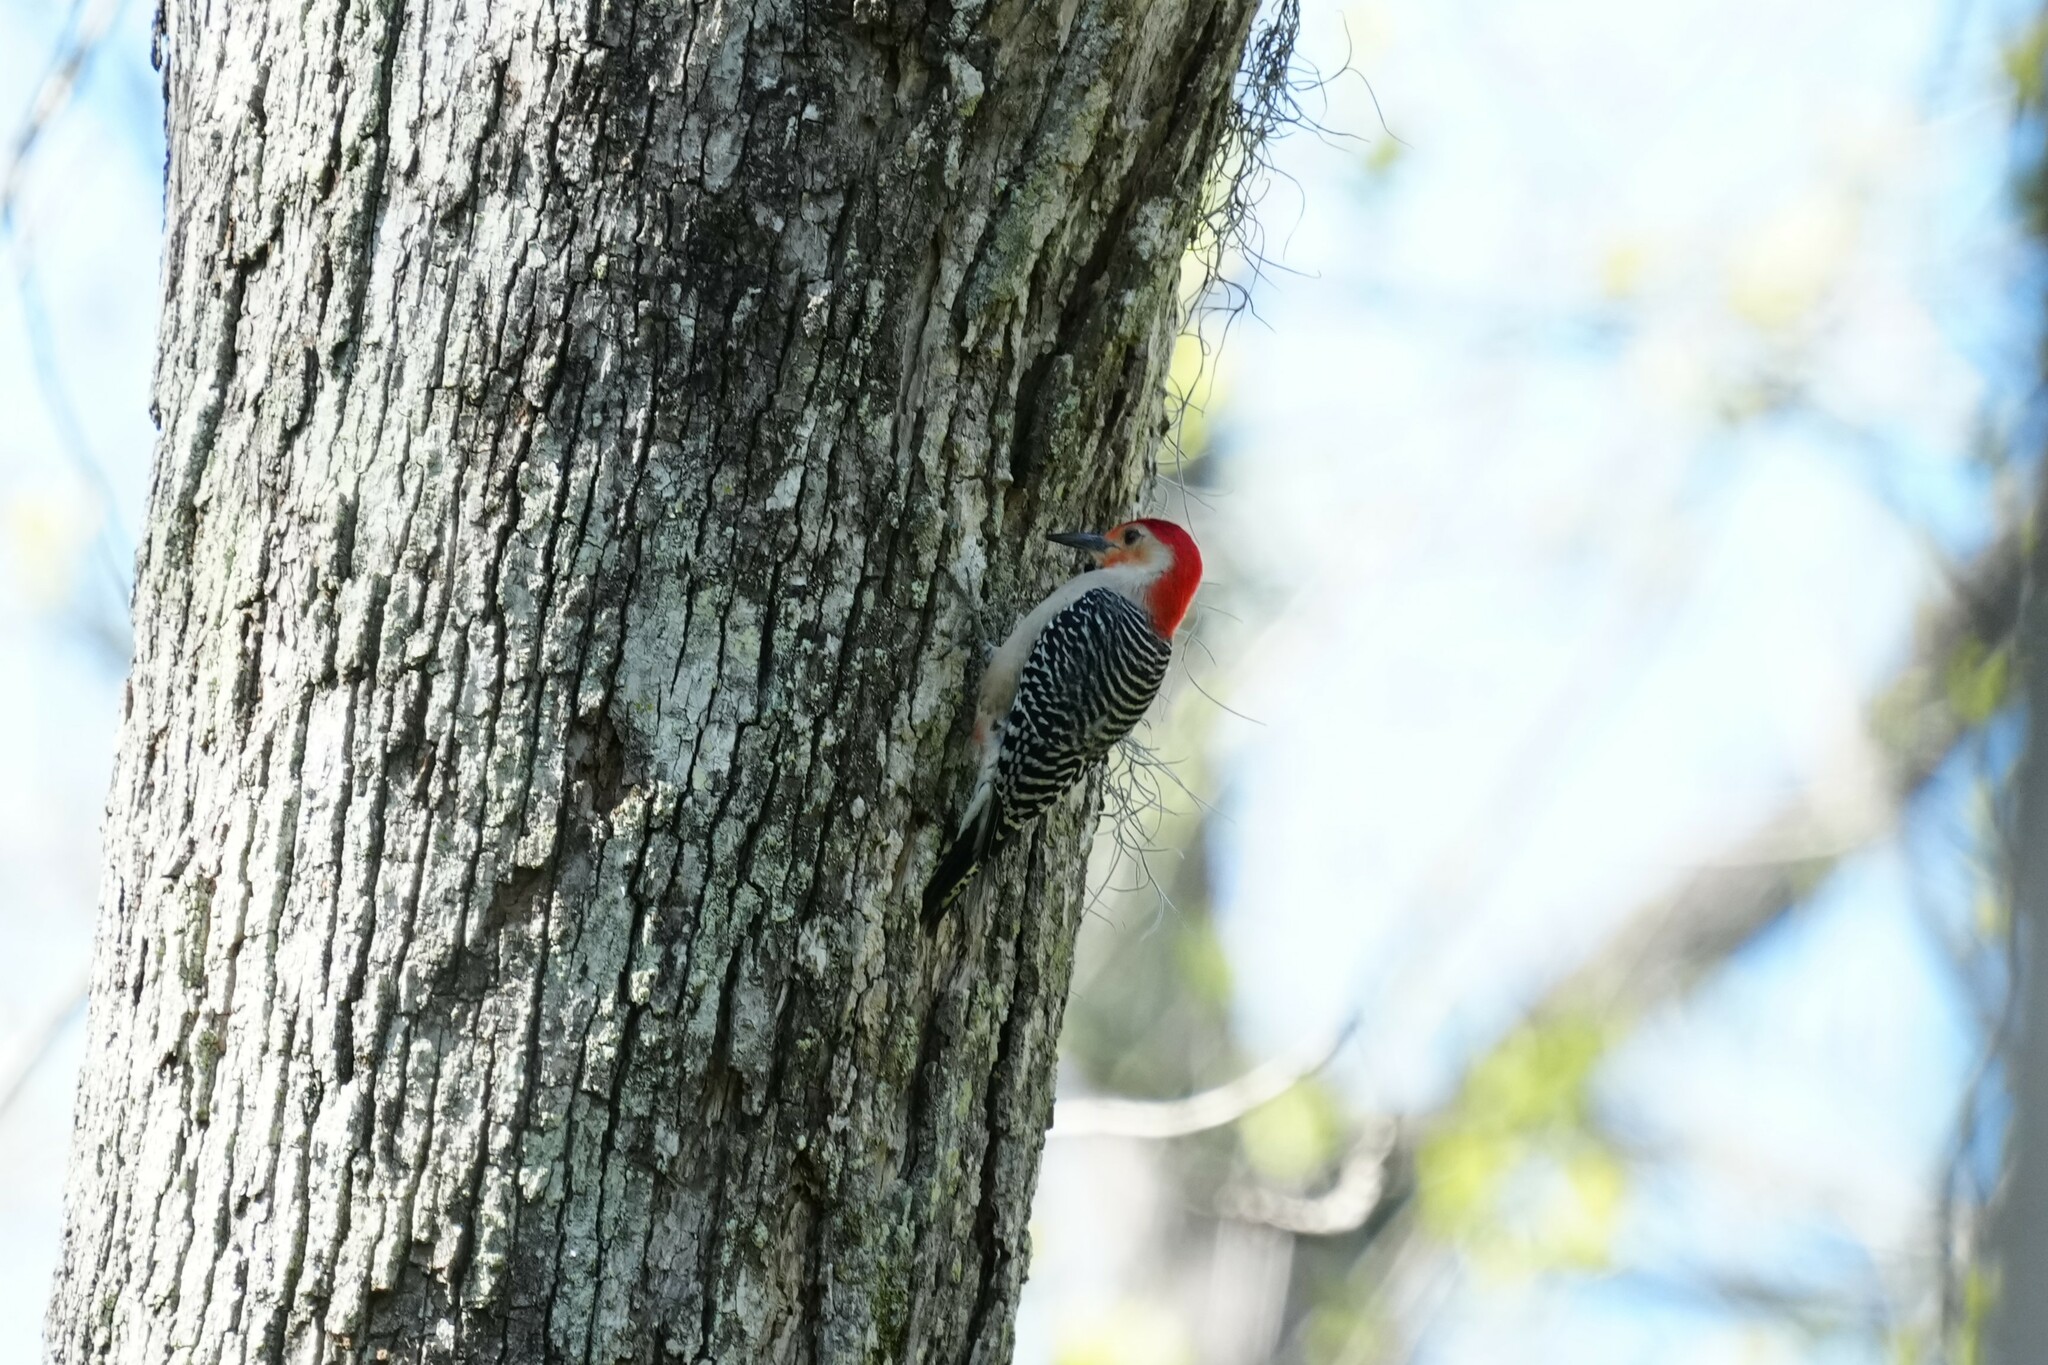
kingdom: Animalia
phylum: Chordata
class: Aves
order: Piciformes
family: Picidae
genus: Melanerpes
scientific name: Melanerpes carolinus
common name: Red-bellied woodpecker
